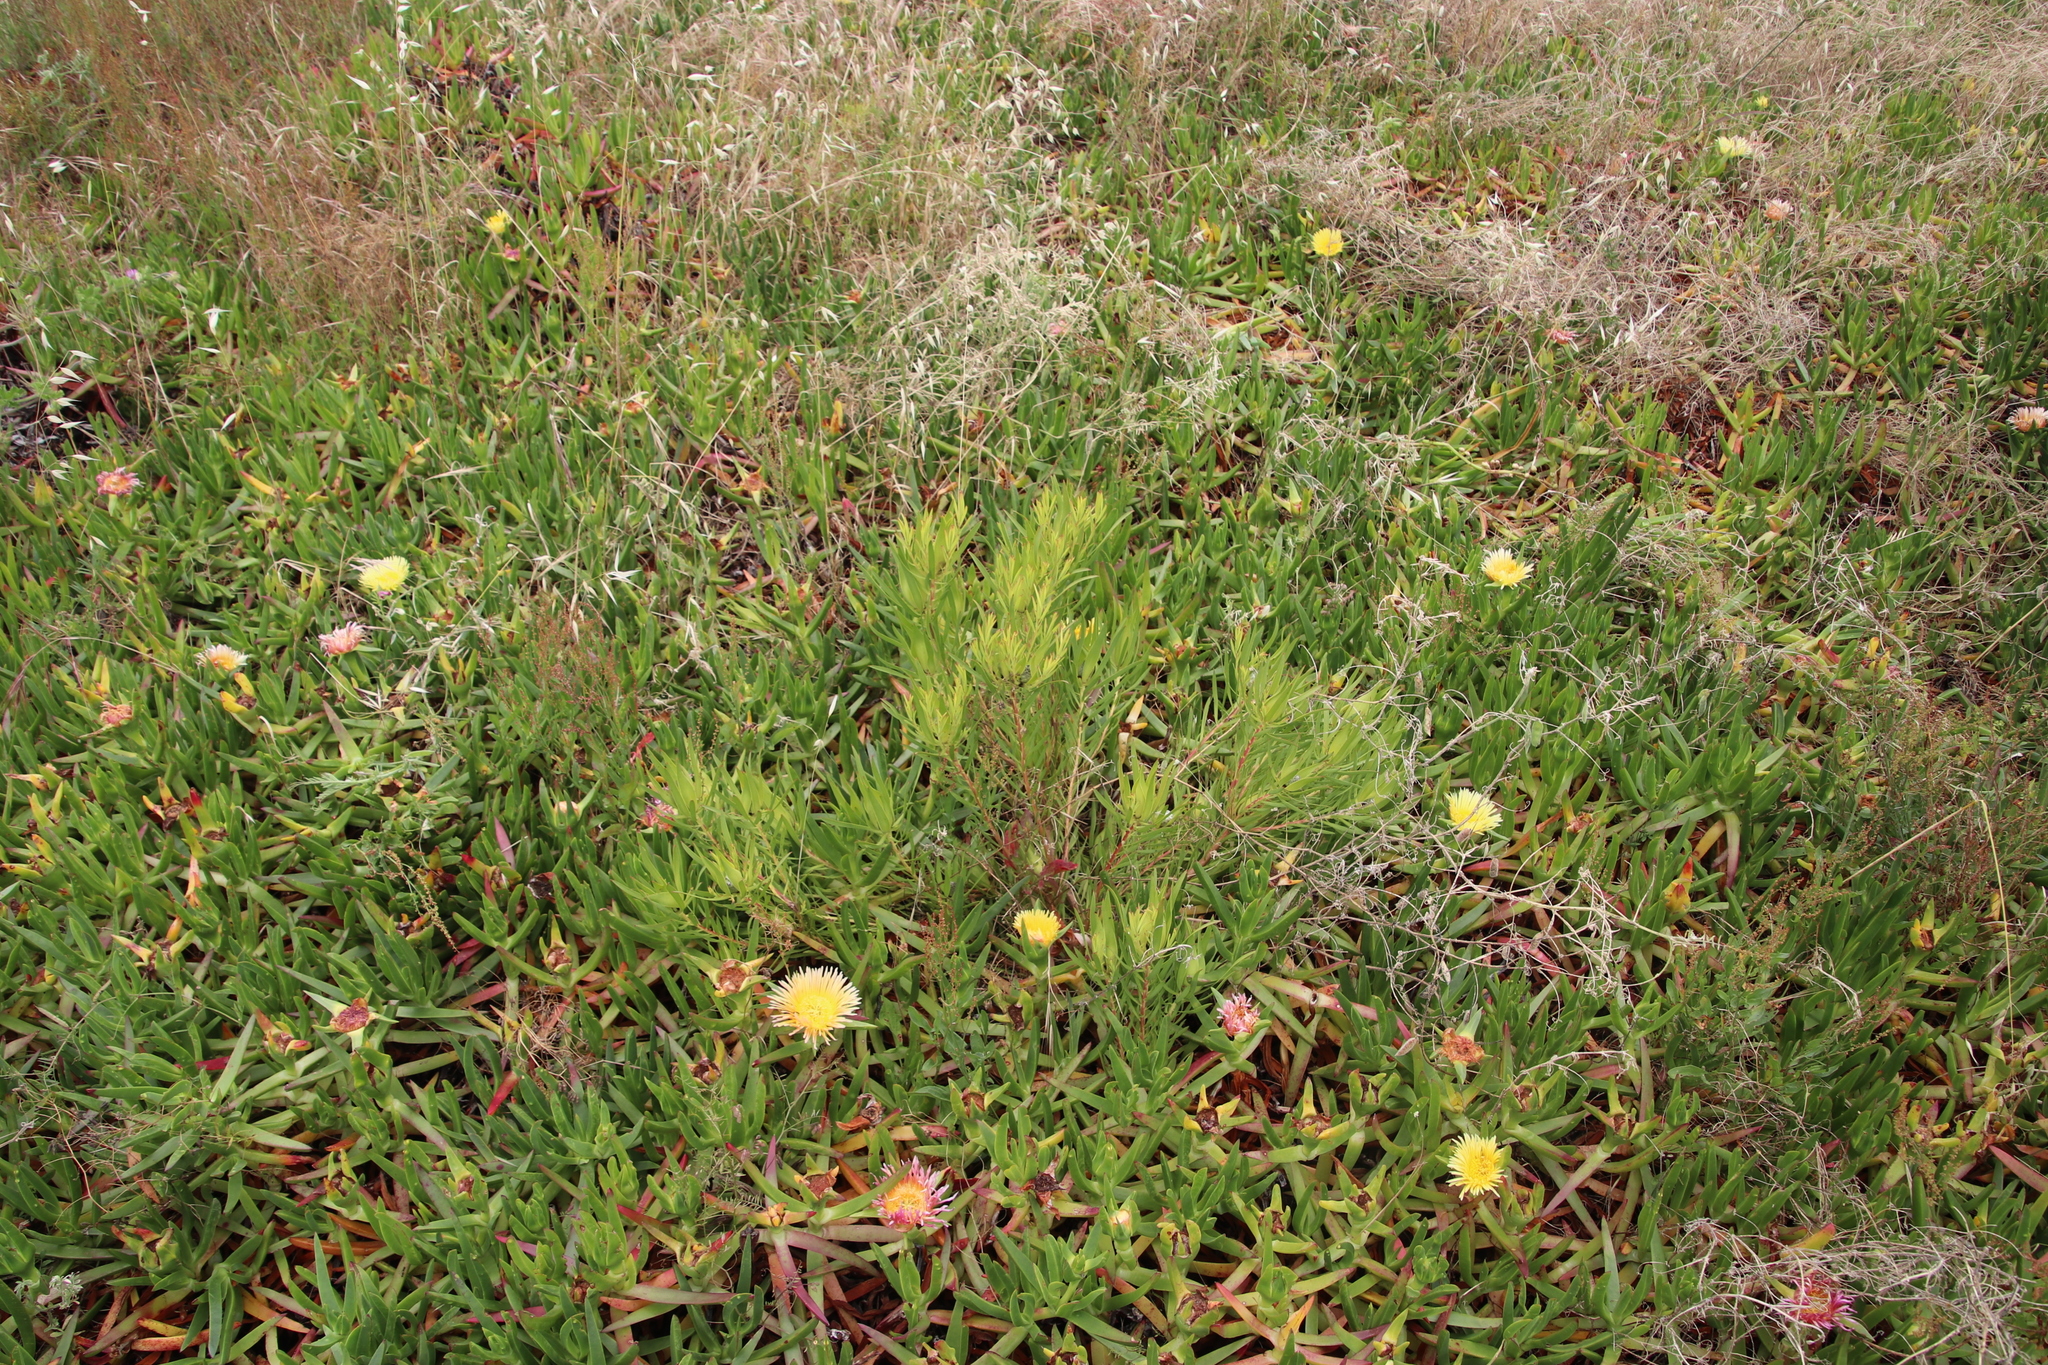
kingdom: Plantae
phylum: Tracheophyta
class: Magnoliopsida
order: Proteales
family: Proteaceae
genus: Leucadendron
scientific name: Leucadendron salignum
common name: Common sunshine conebush
